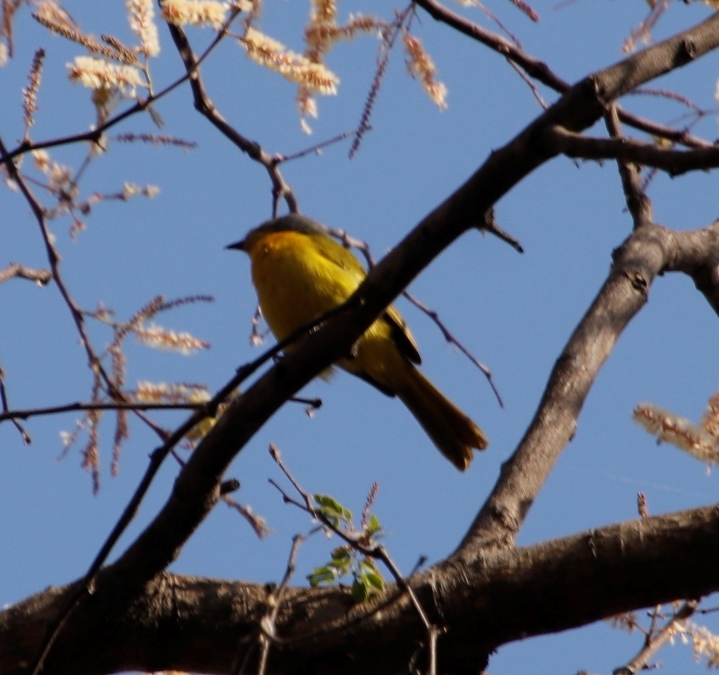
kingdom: Animalia
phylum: Chordata
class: Aves
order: Passeriformes
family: Malaconotidae
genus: Chlorophoneus
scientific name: Chlorophoneus sulfureopectus
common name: Orange-breasted bushshrike
